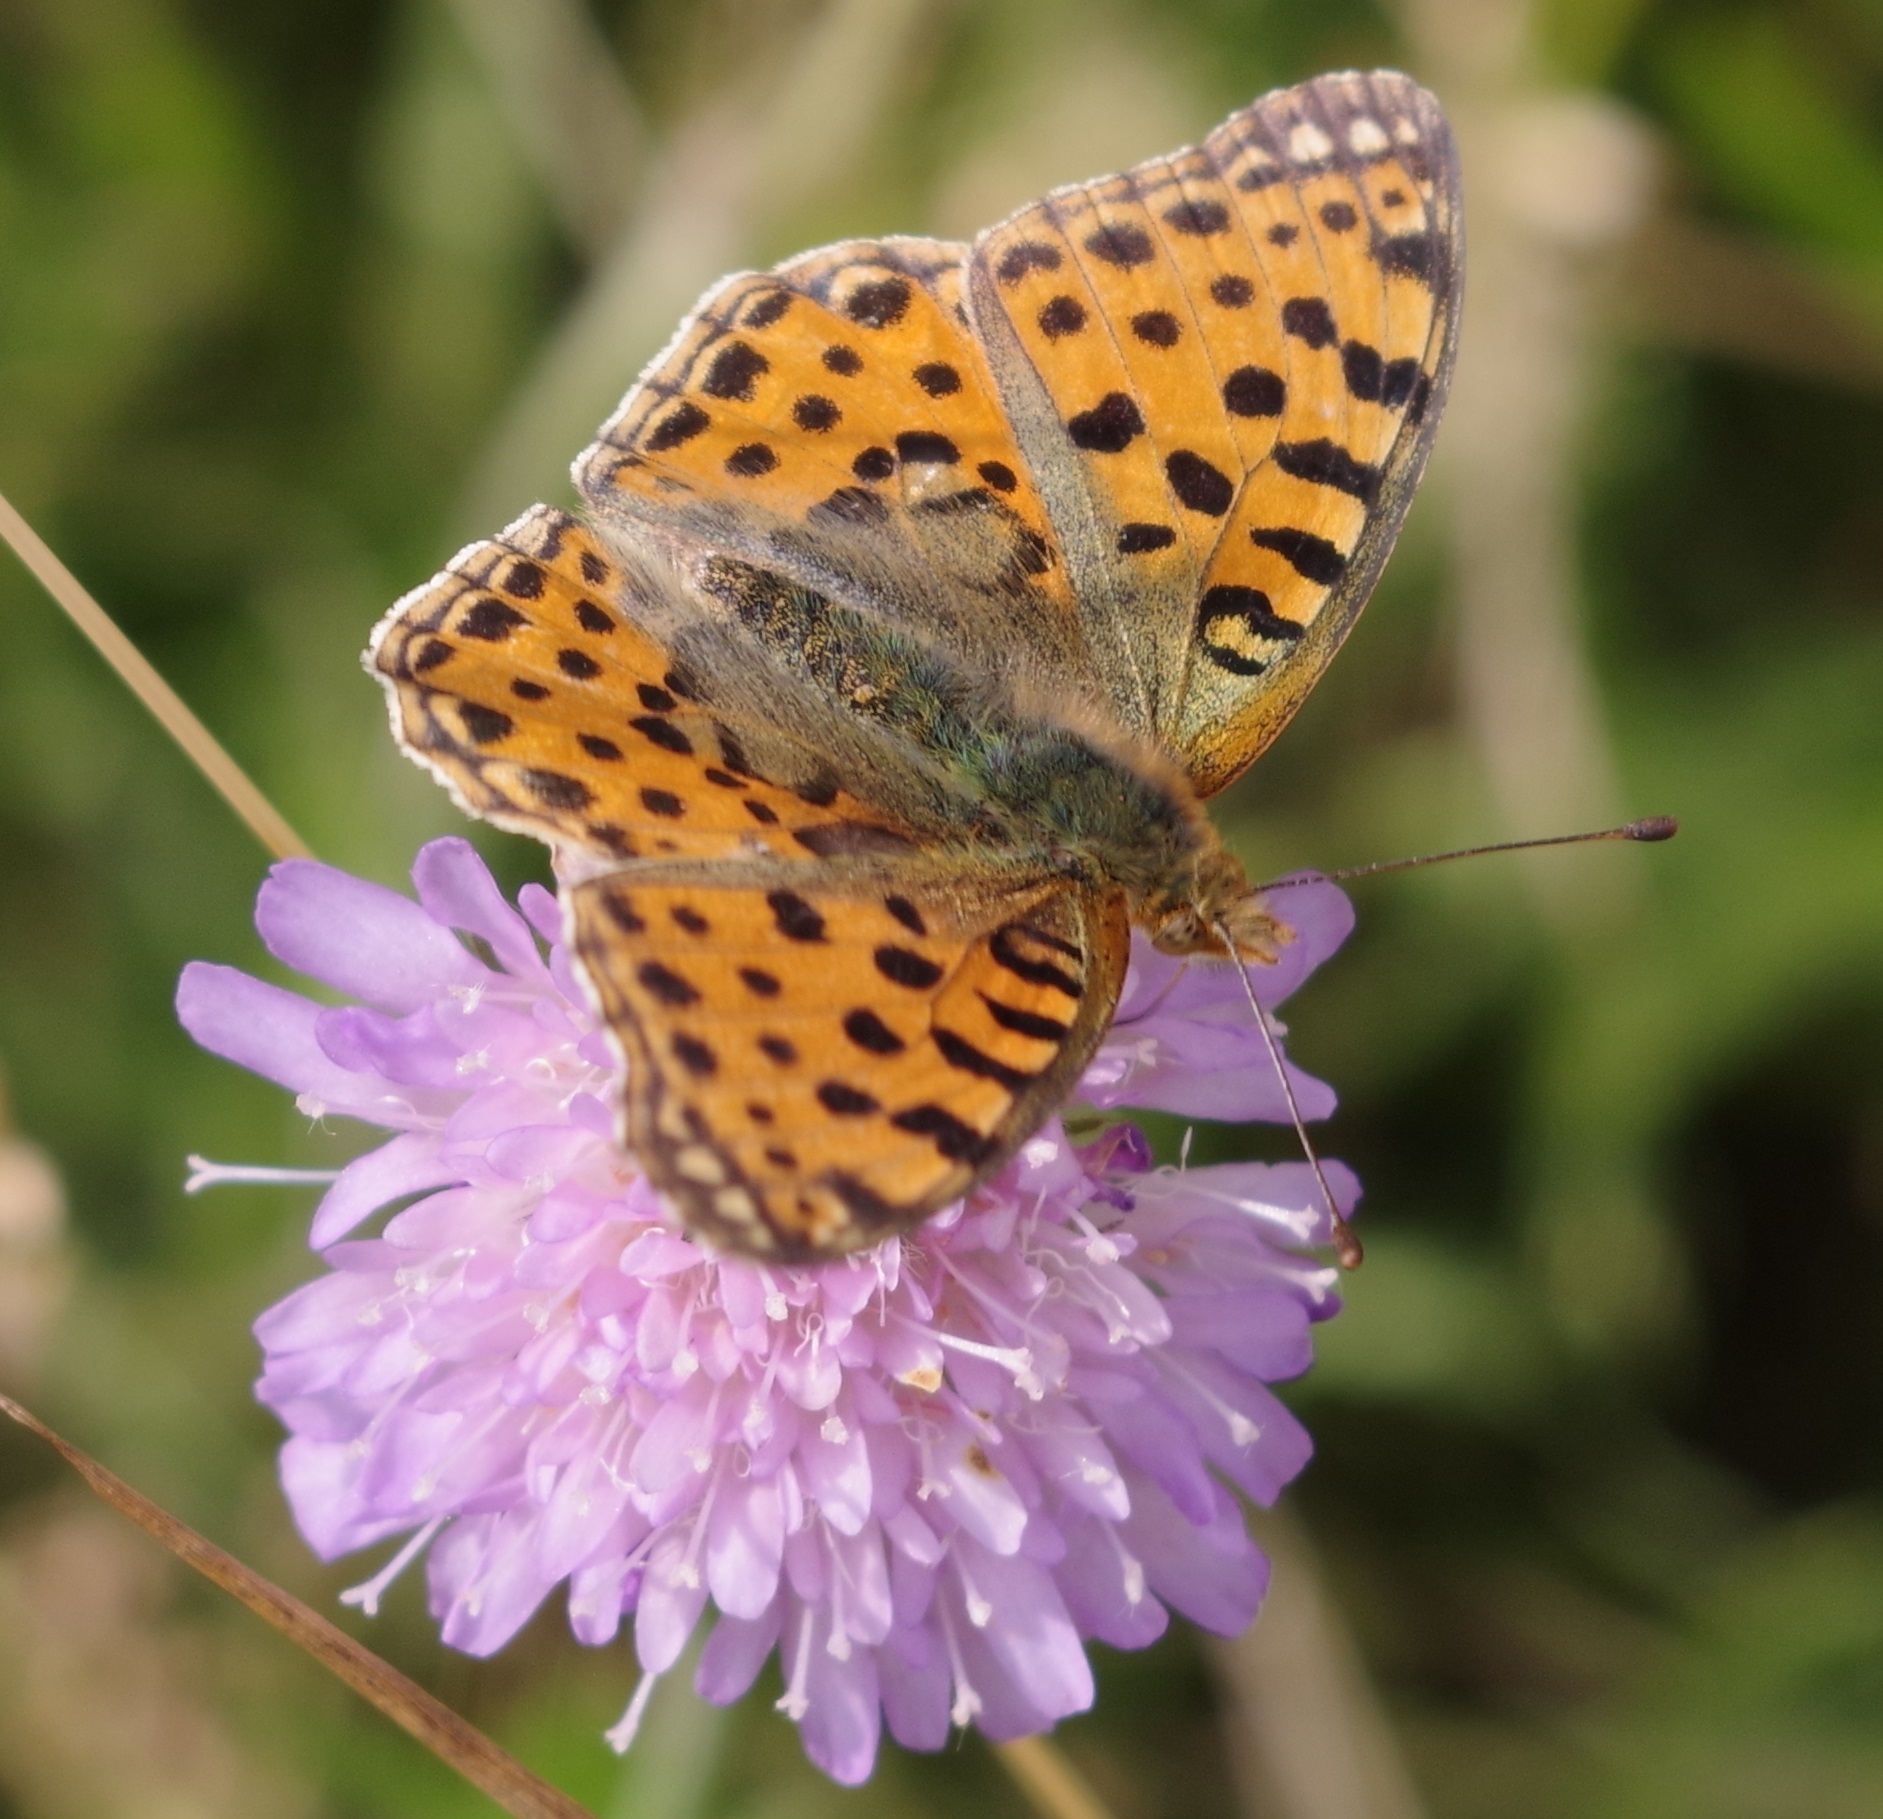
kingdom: Animalia
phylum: Arthropoda
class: Insecta
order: Lepidoptera
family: Nymphalidae
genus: Issoria
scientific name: Issoria lathonia
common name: Queen of spain fritillary
